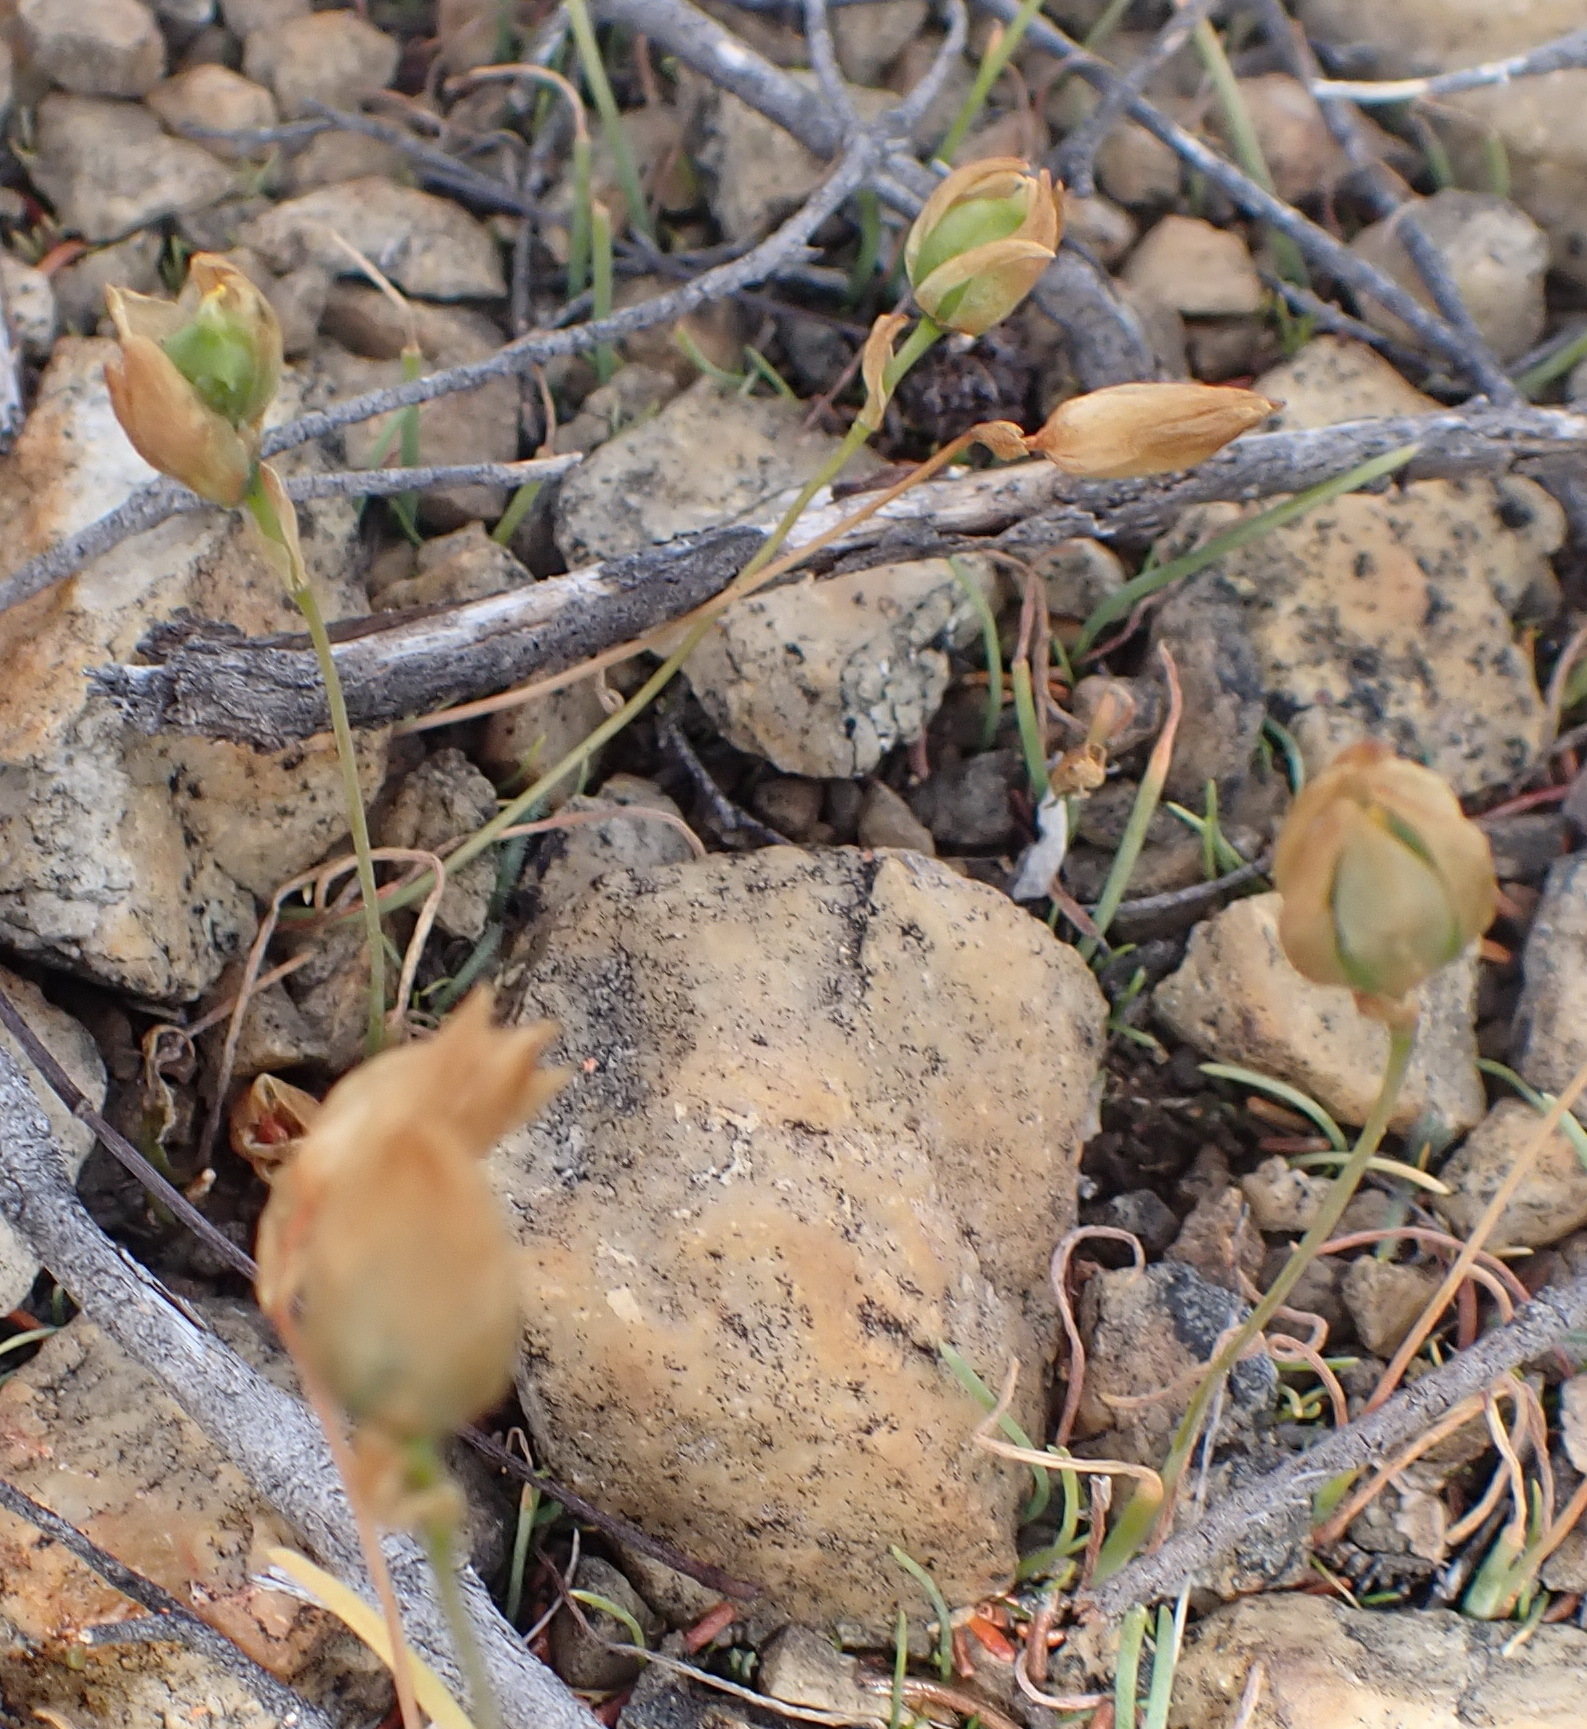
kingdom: Plantae
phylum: Tracheophyta
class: Liliopsida
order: Asparagales
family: Asparagaceae
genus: Drimia
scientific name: Drimia uniflora
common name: Fairy bell
